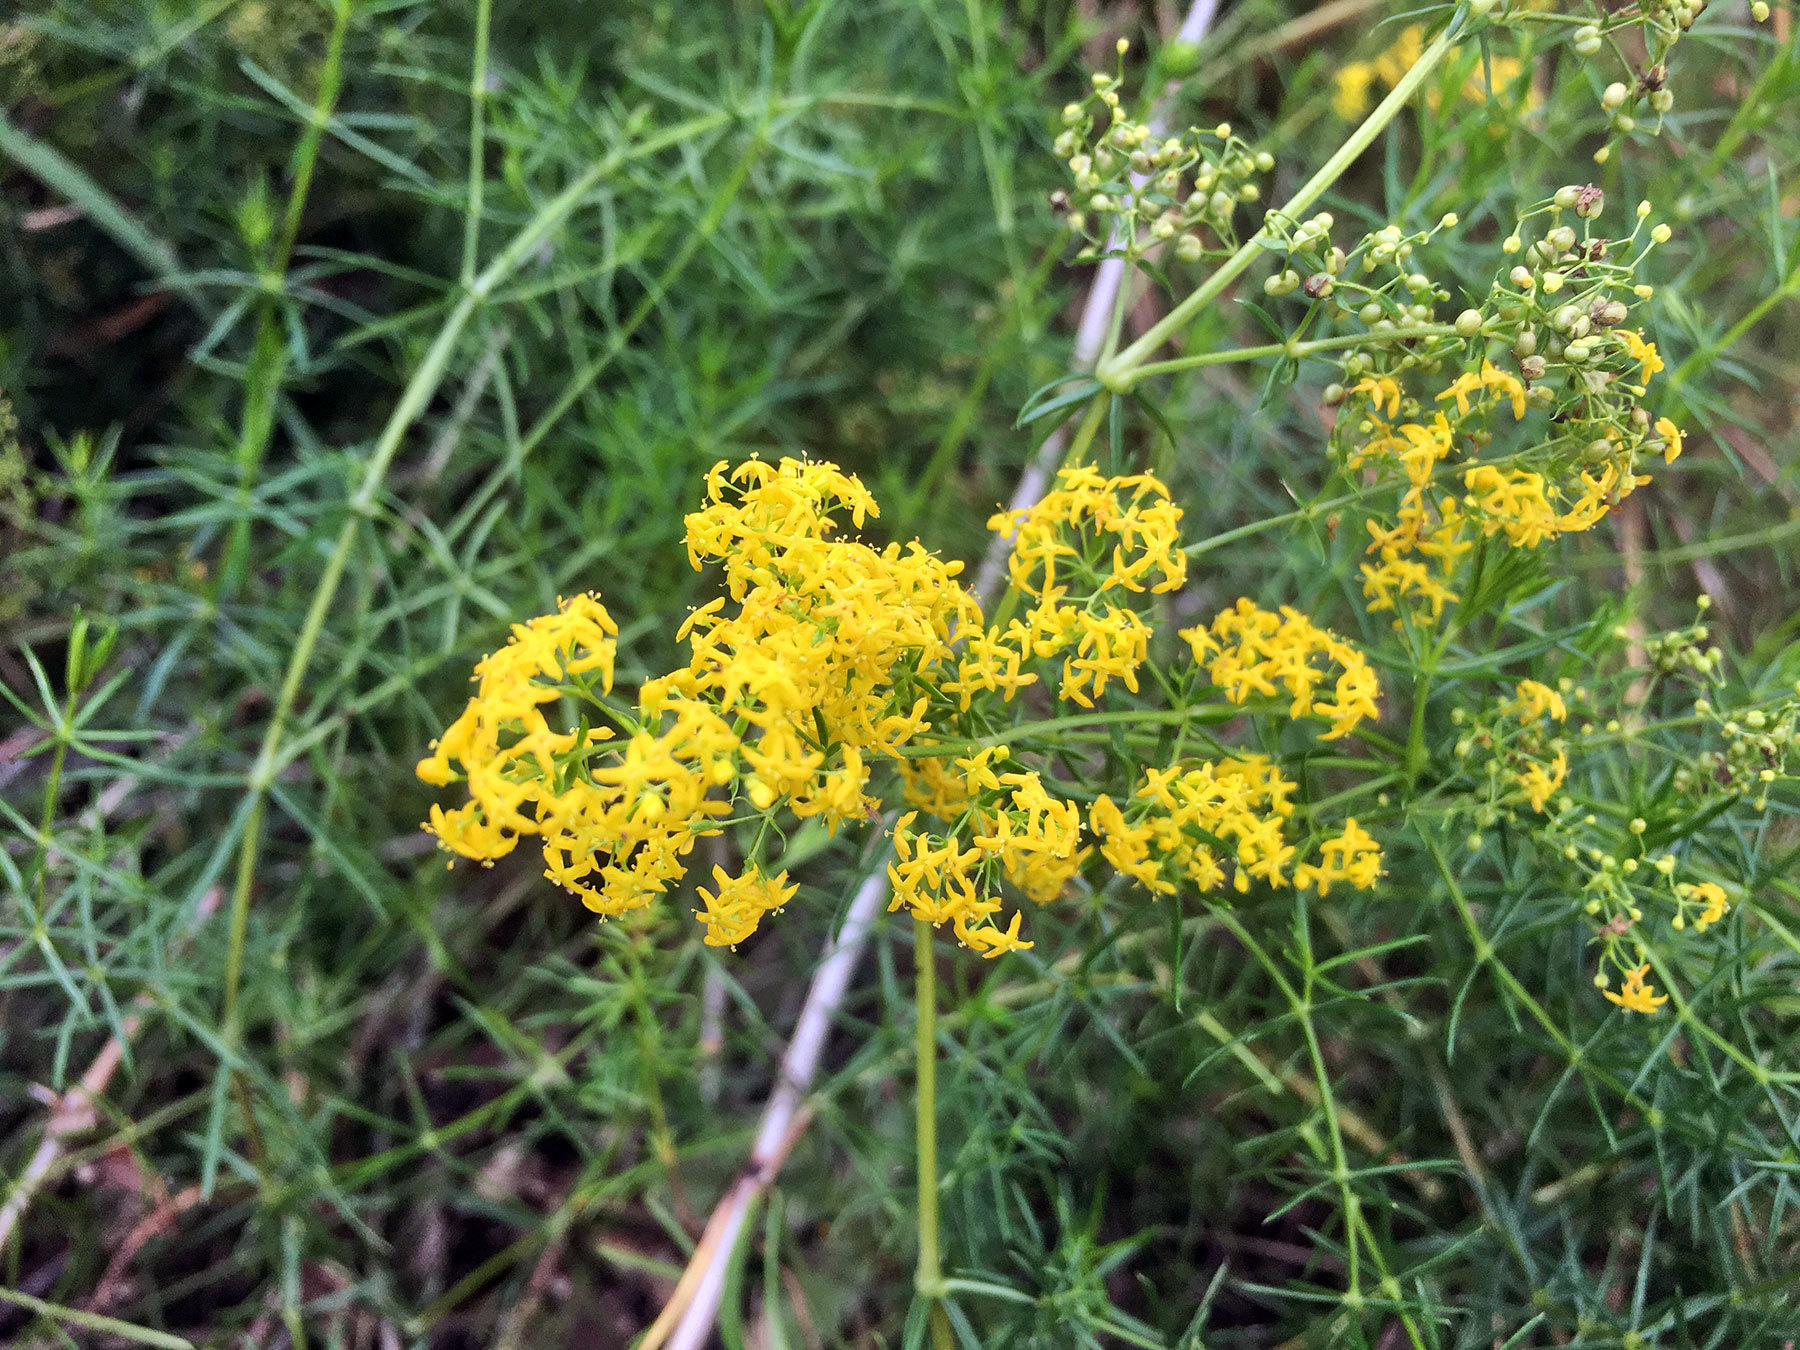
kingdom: Plantae
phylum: Tracheophyta
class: Magnoliopsida
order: Gentianales
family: Rubiaceae
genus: Galium
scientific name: Galium verum
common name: Lady's bedstraw
